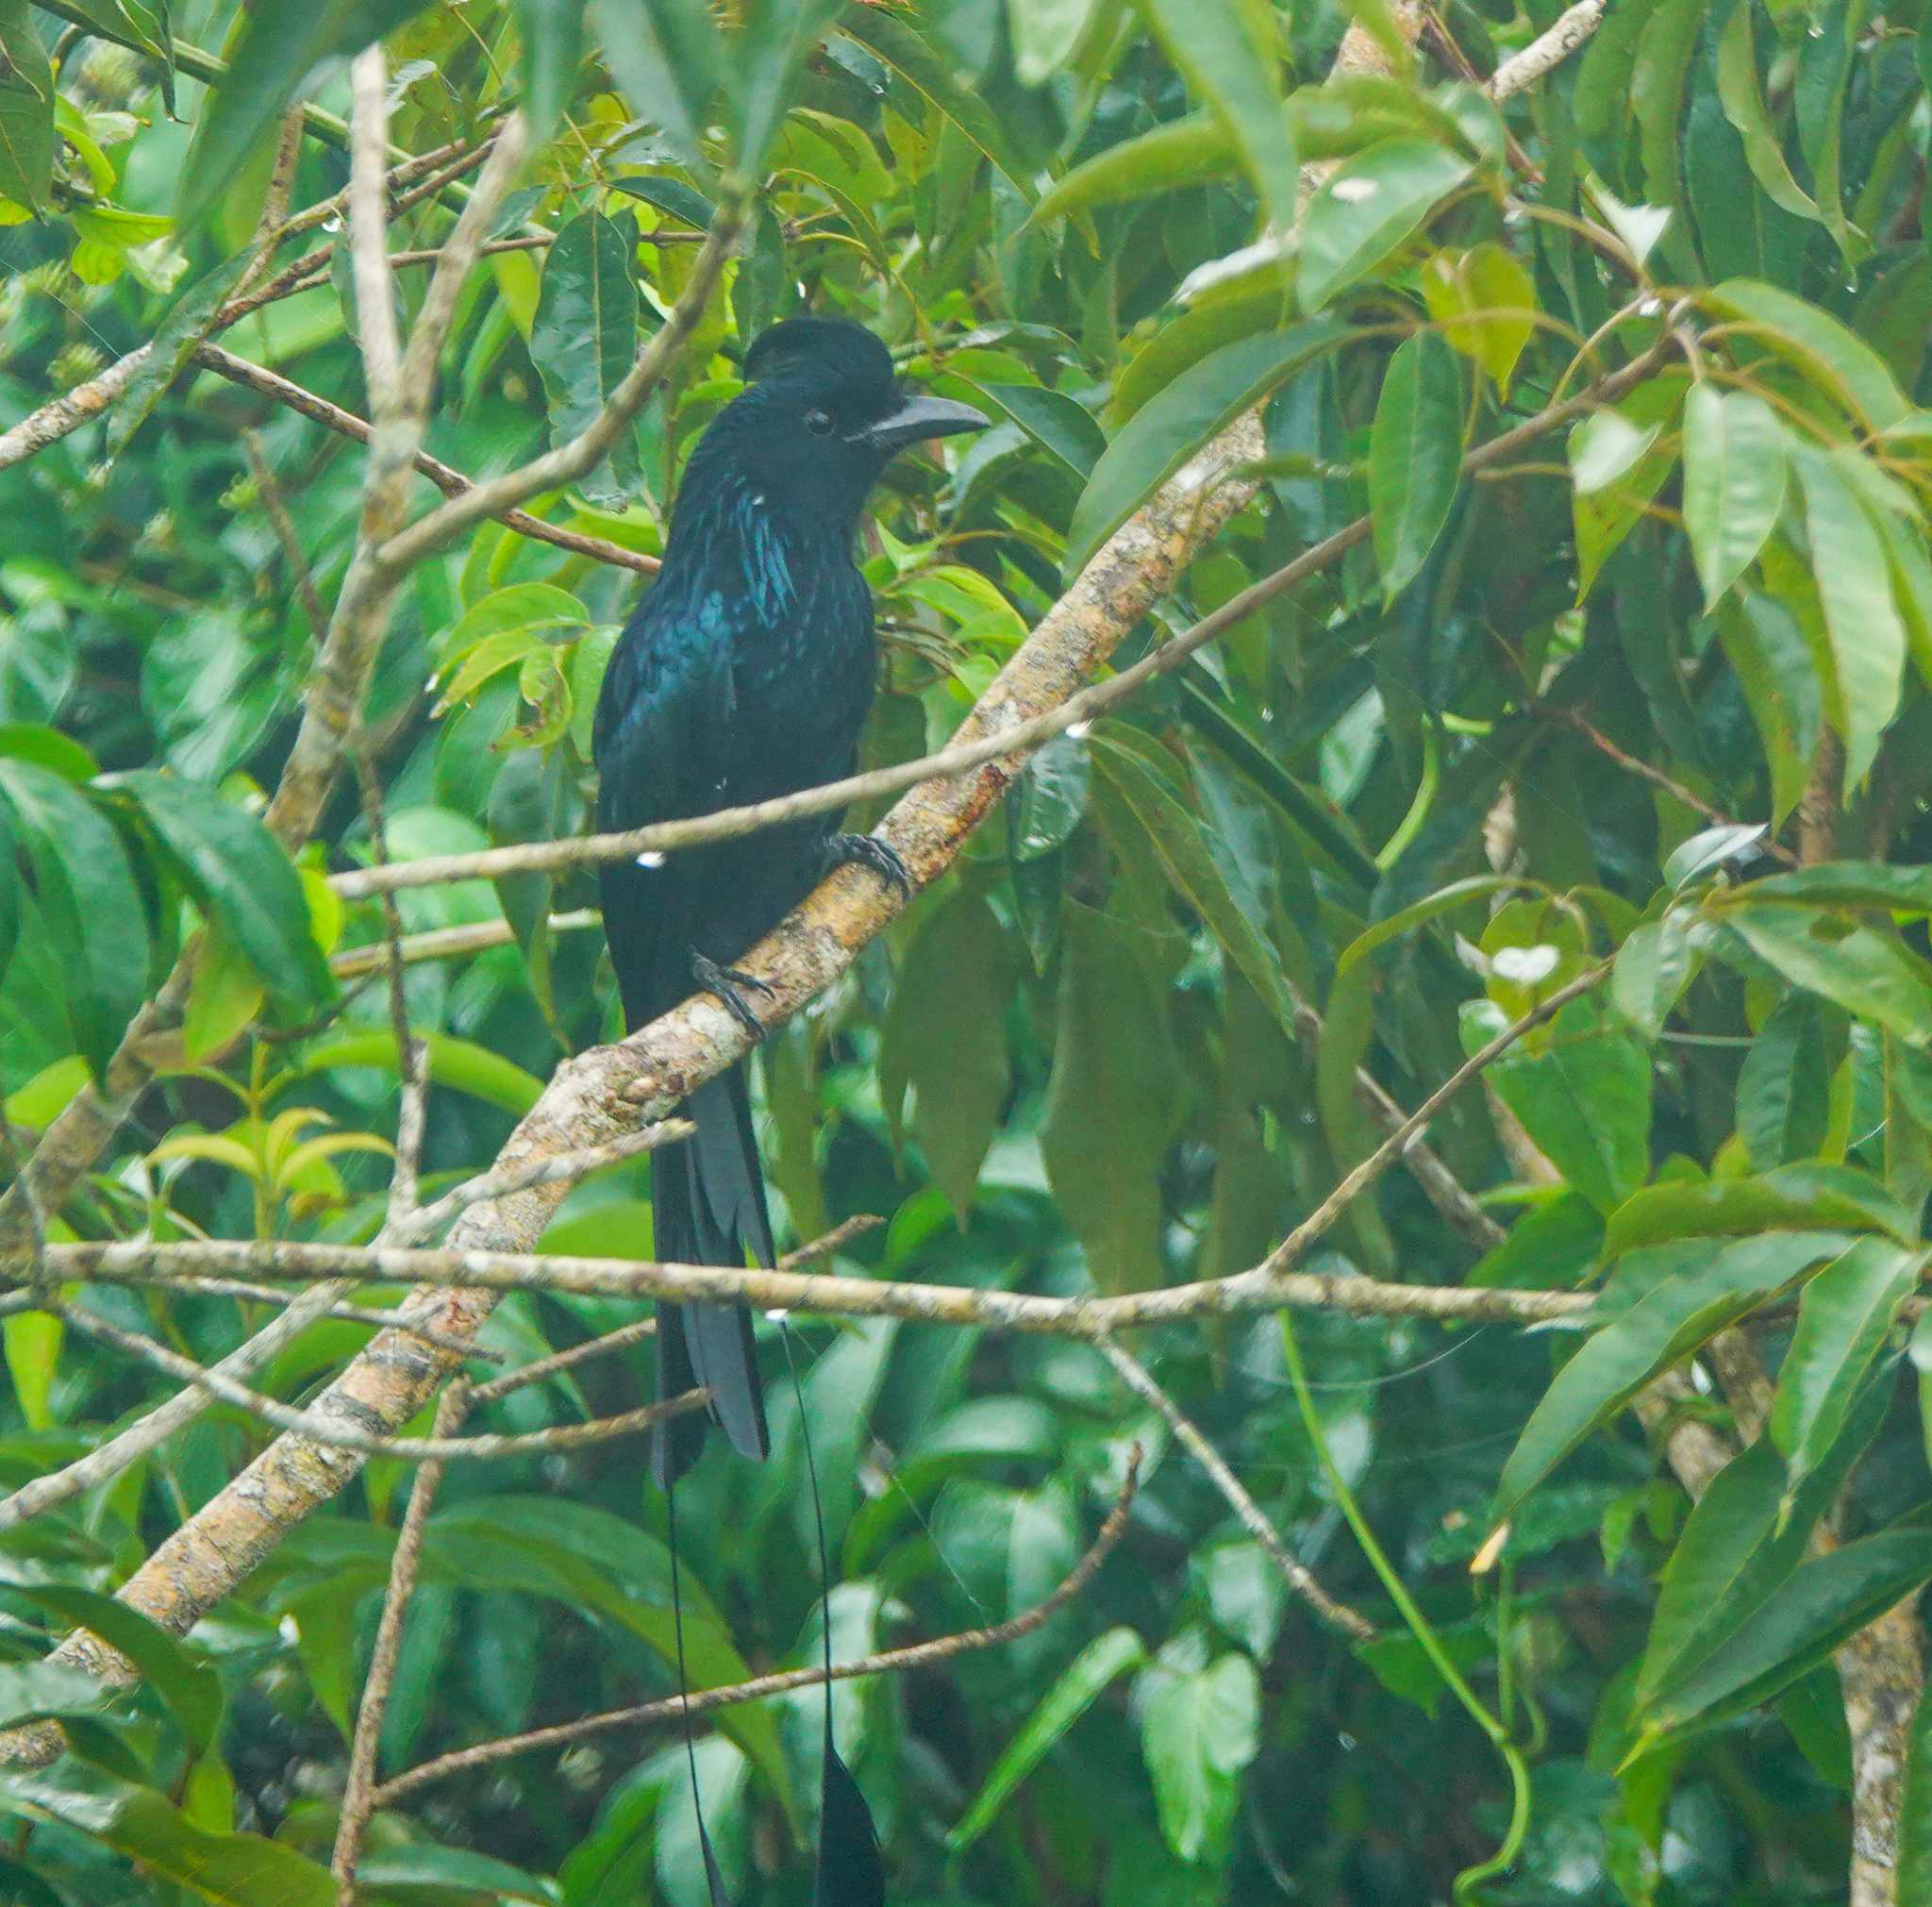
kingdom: Animalia
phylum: Chordata
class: Aves
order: Passeriformes
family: Dicruridae
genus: Dicrurus
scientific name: Dicrurus paradiseus
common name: Greater racket-tailed drongo
